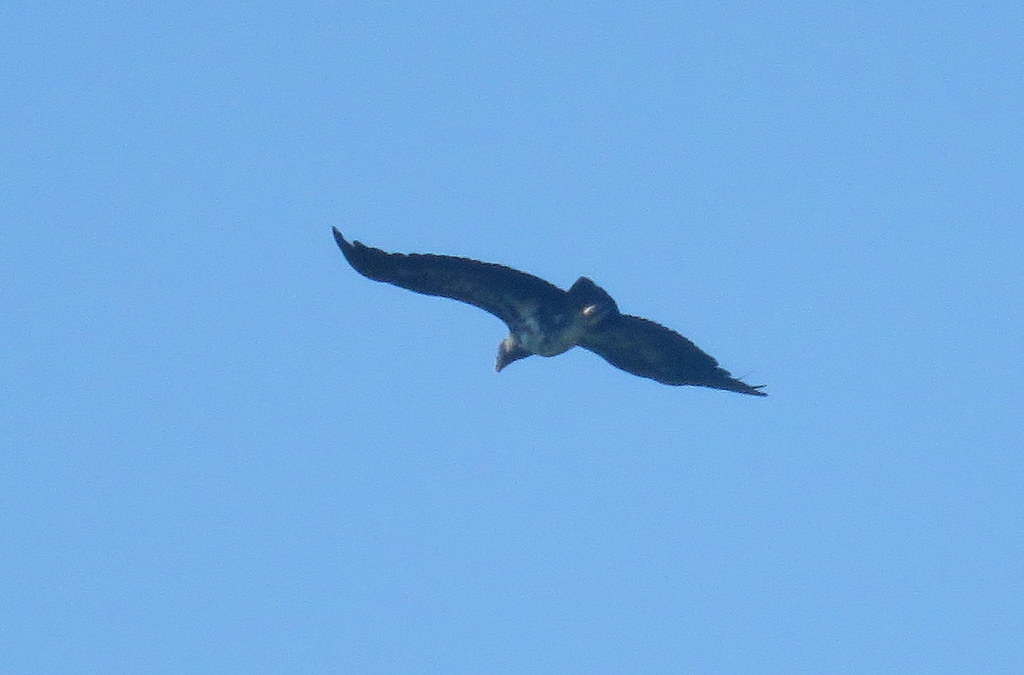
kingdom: Animalia
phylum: Chordata
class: Aves
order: Accipitriformes
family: Cathartidae
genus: Sarcoramphus
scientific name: Sarcoramphus papa
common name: King vulture
